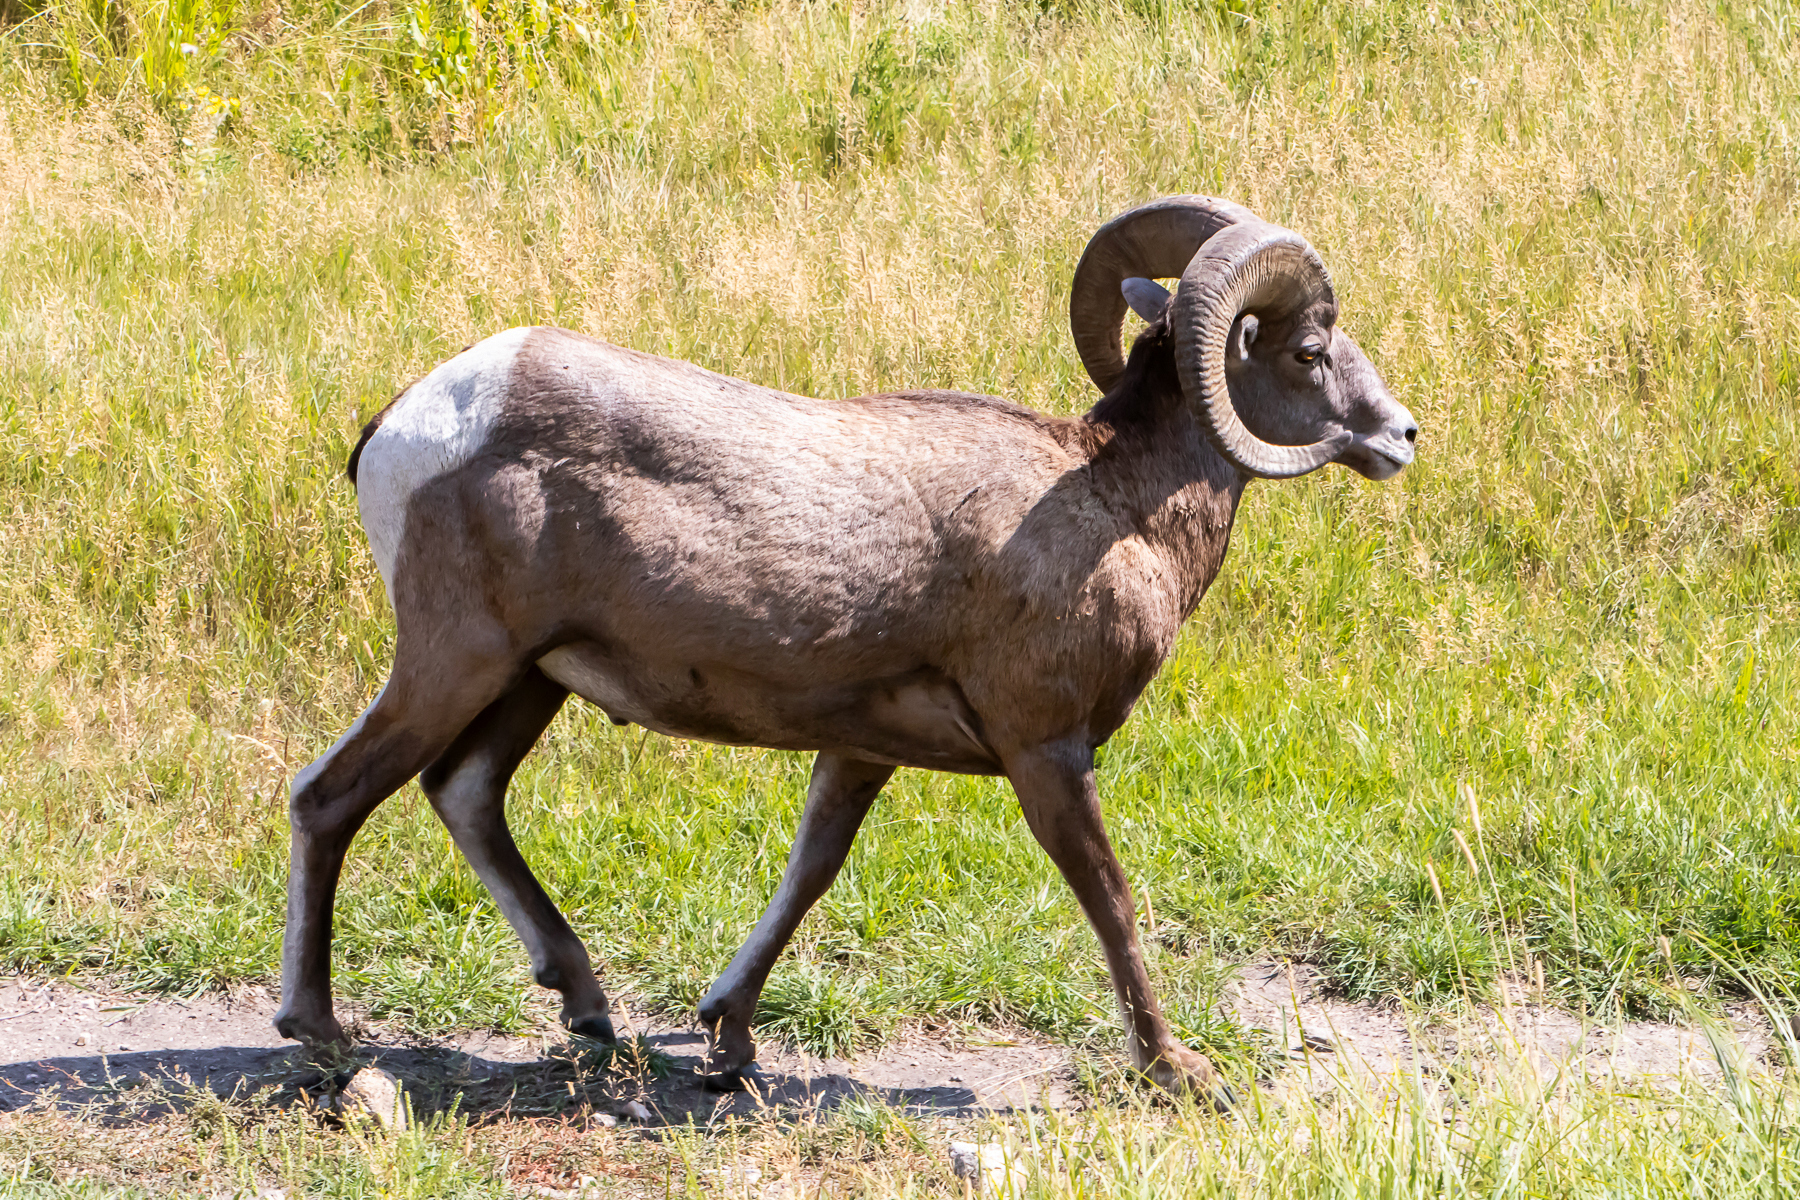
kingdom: Animalia
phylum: Chordata
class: Mammalia
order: Artiodactyla
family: Bovidae
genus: Ovis
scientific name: Ovis canadensis
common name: Bighorn sheep
